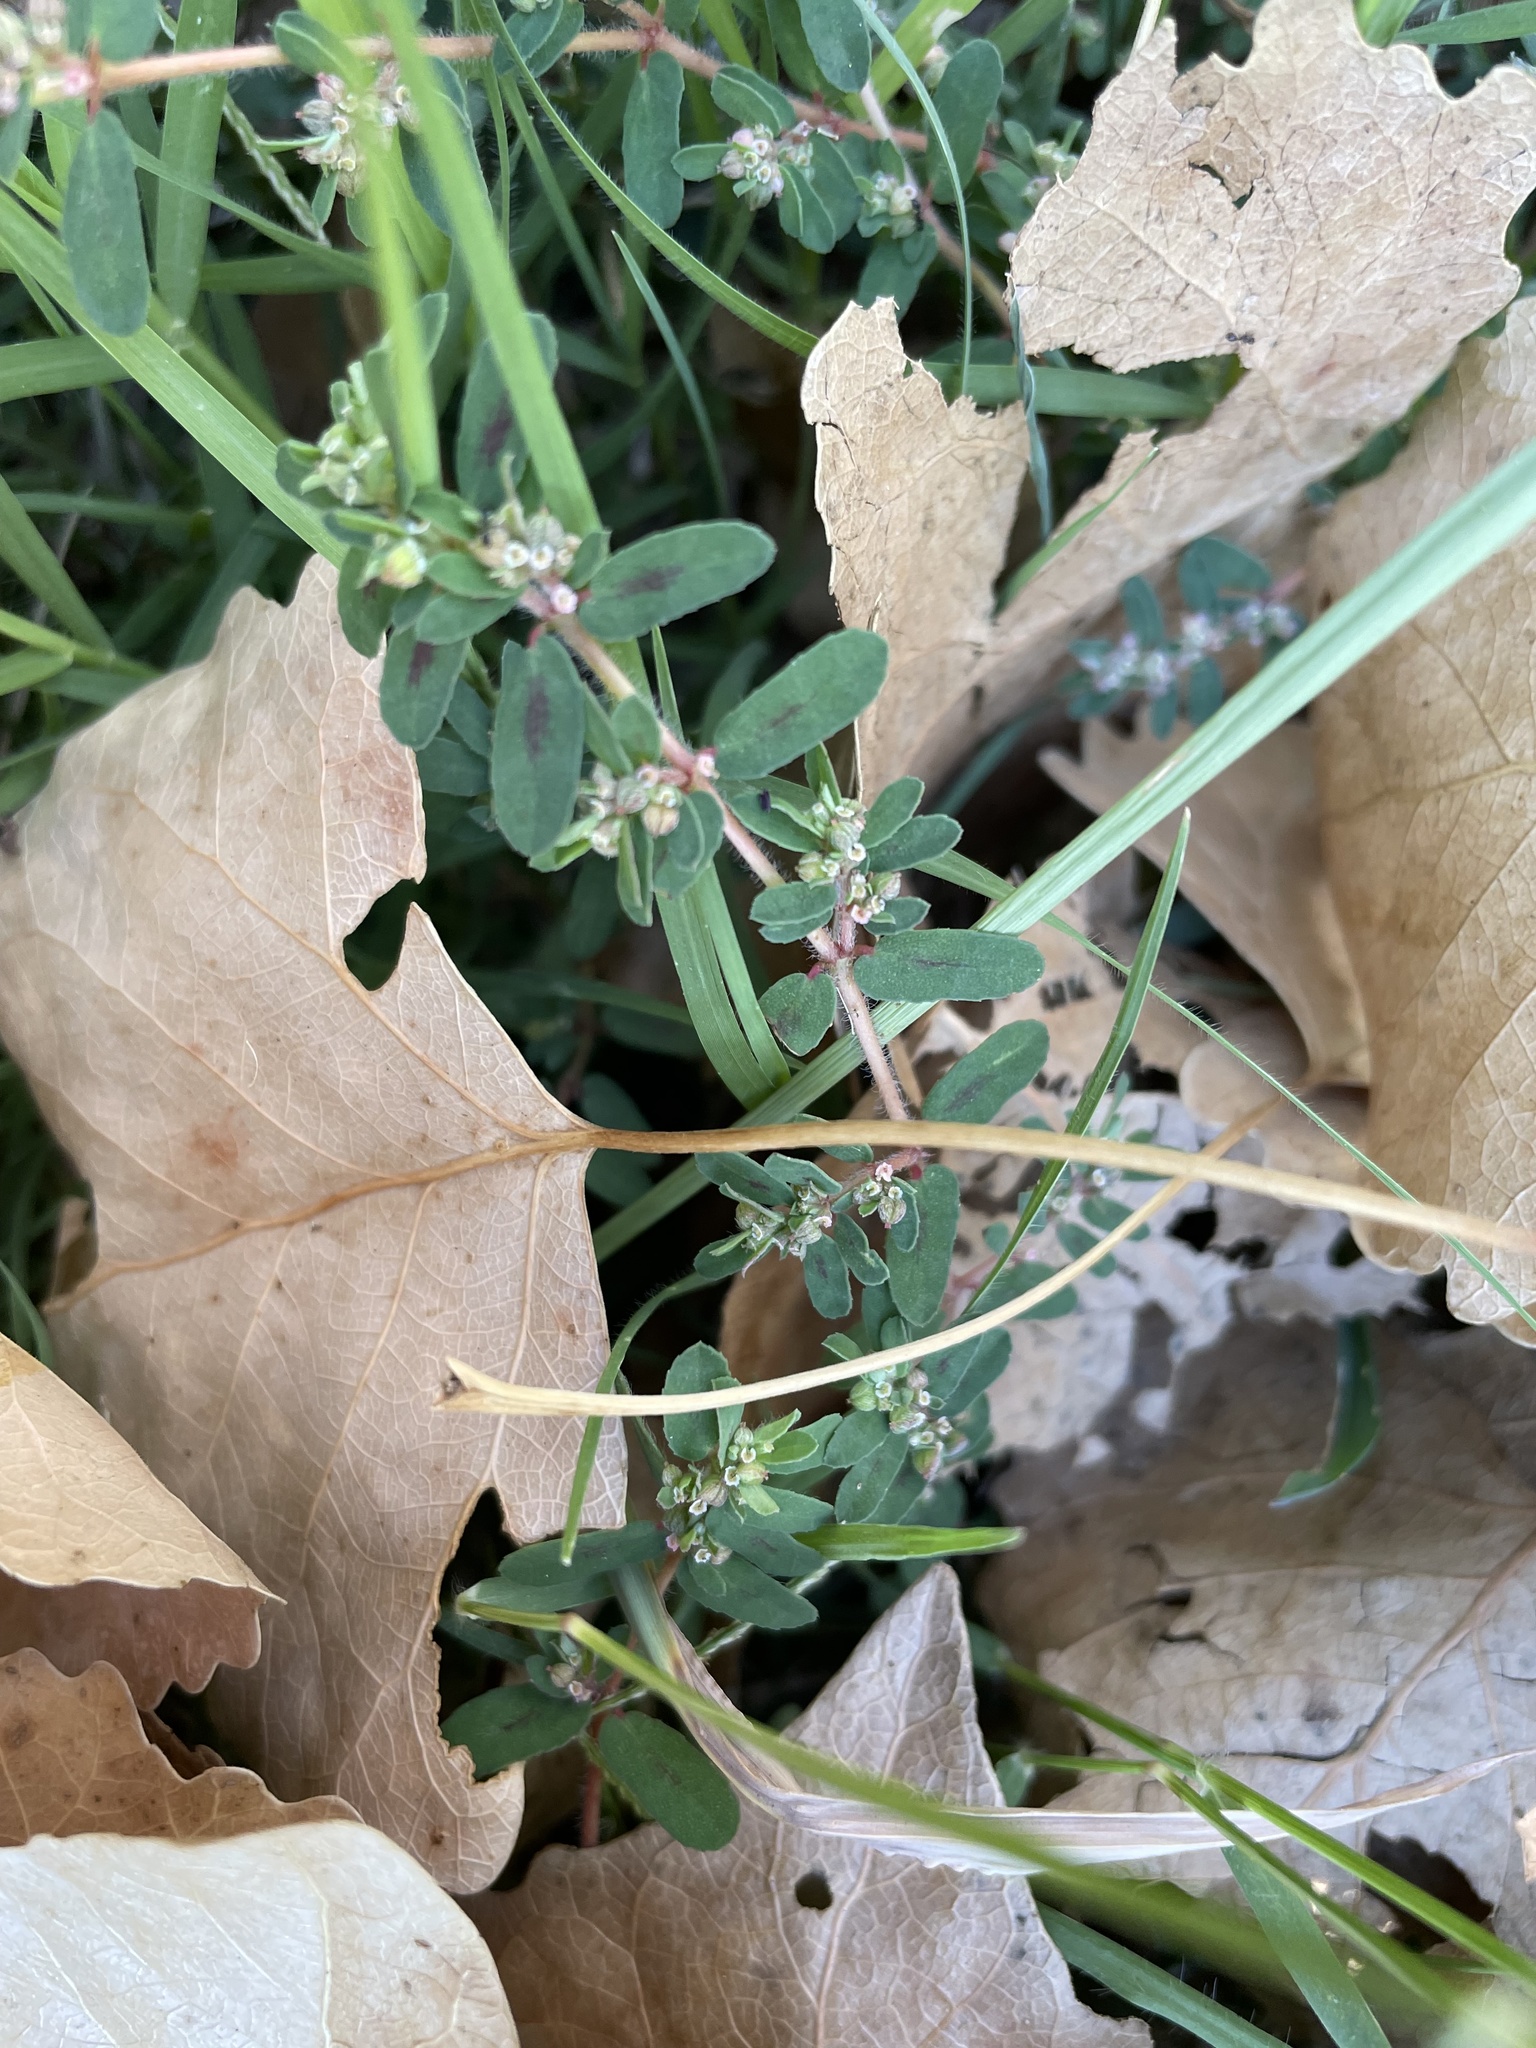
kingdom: Plantae
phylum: Tracheophyta
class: Magnoliopsida
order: Malpighiales
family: Euphorbiaceae
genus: Euphorbia
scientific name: Euphorbia maculata
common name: Spotted spurge
